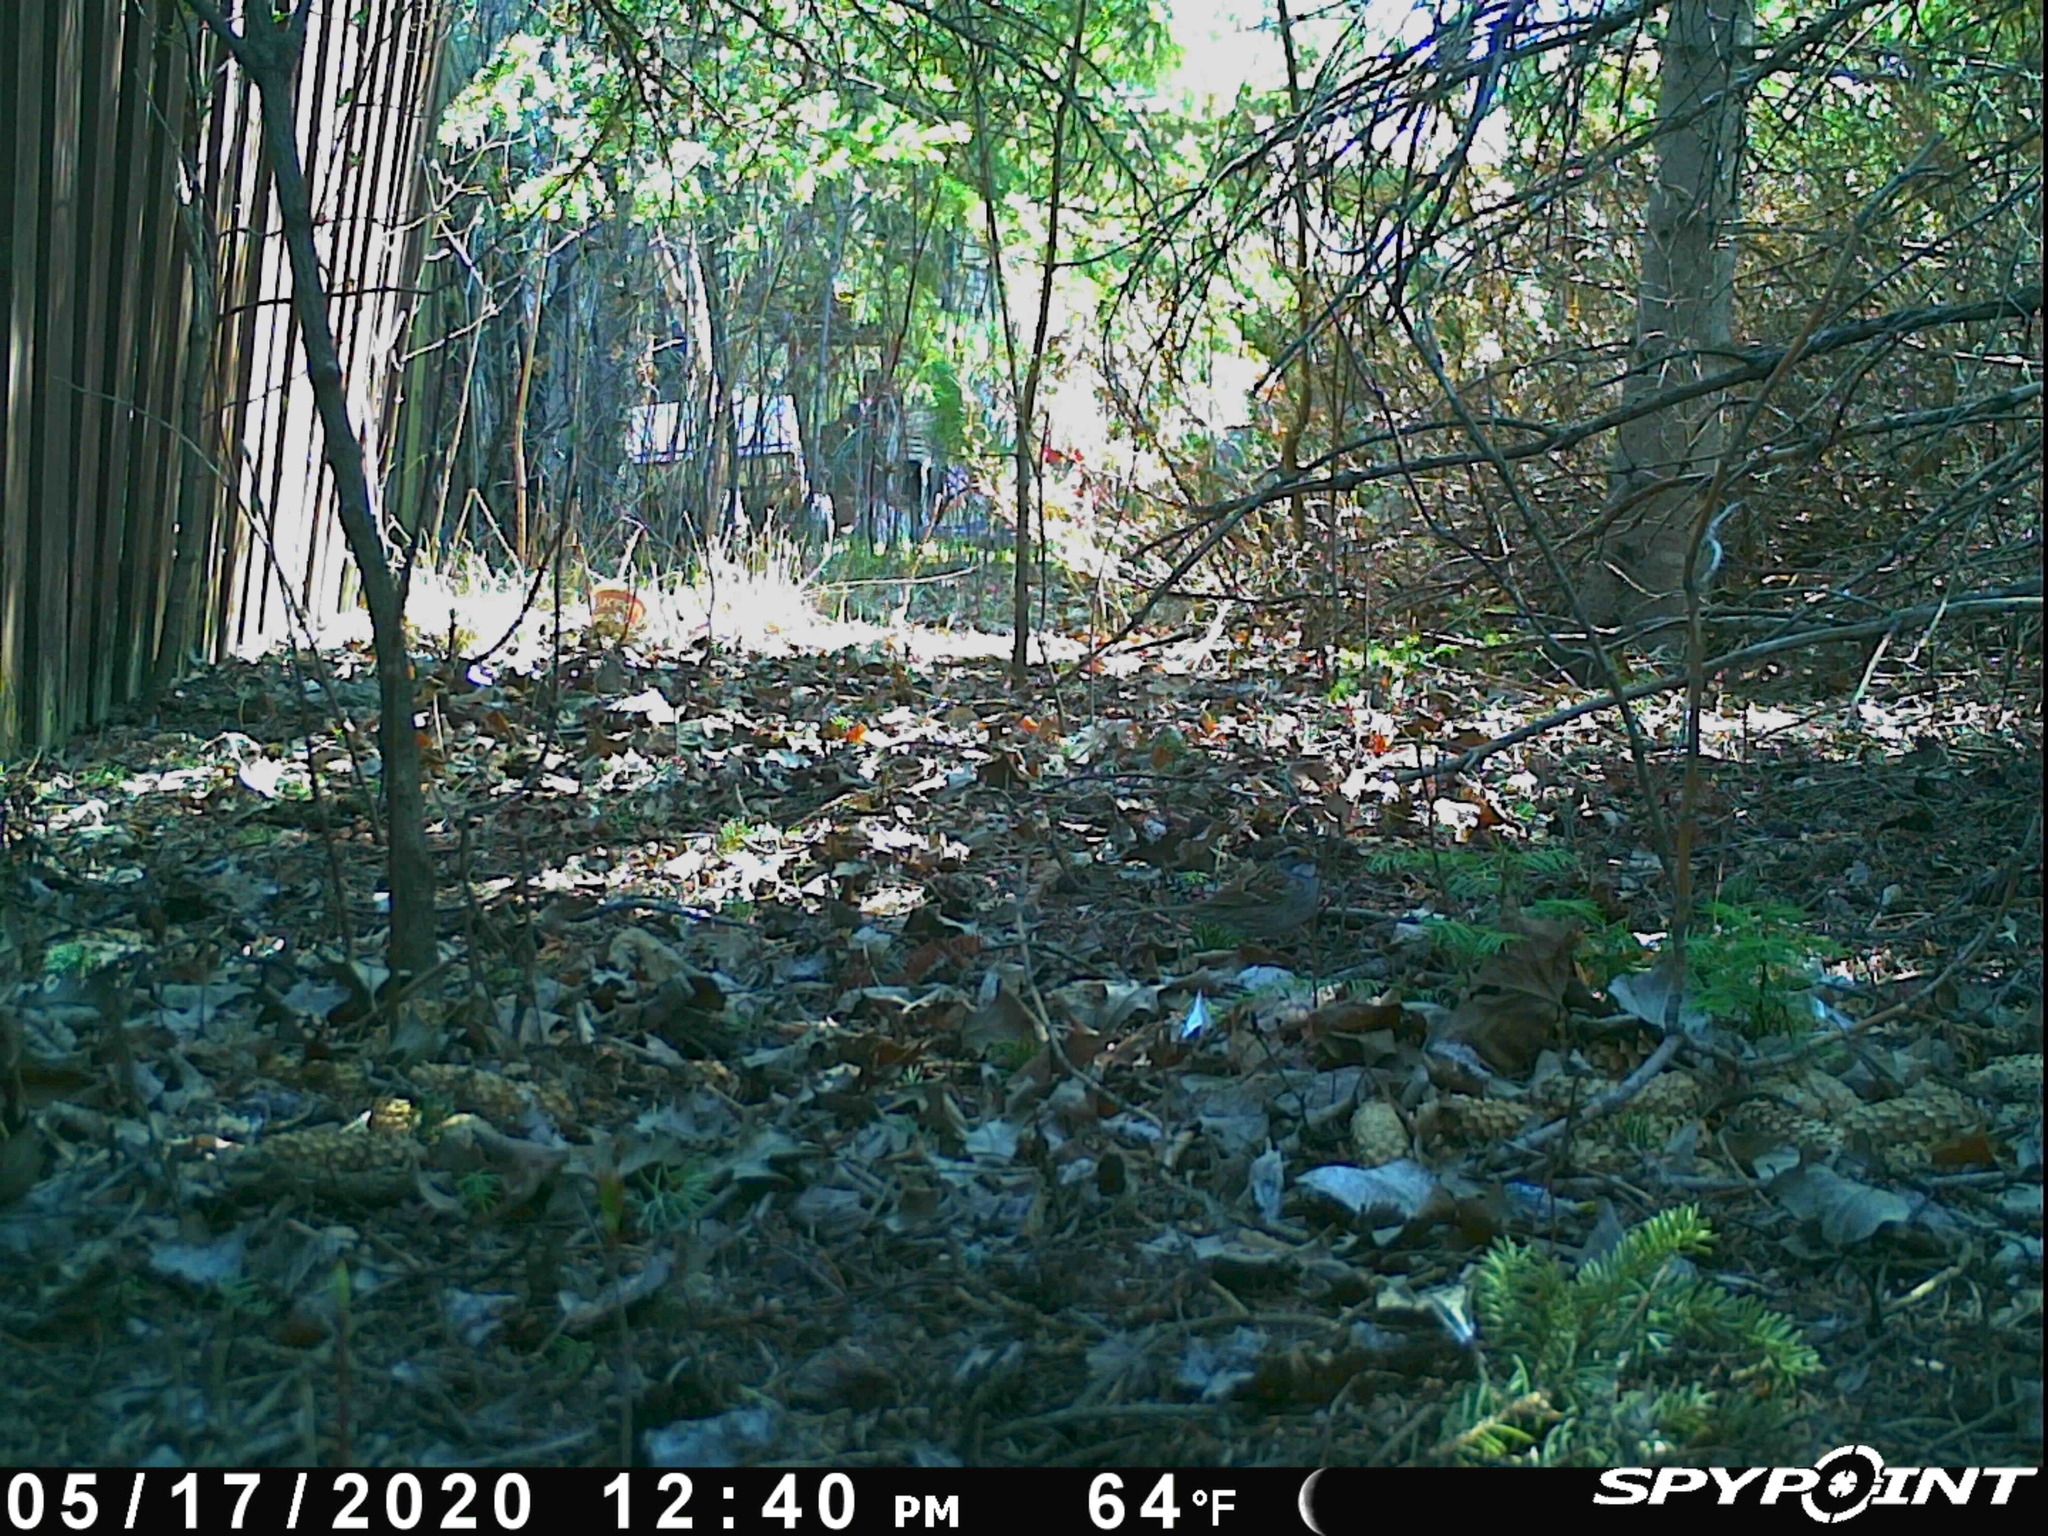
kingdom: Animalia
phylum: Chordata
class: Aves
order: Passeriformes
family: Passerellidae
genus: Zonotrichia
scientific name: Zonotrichia albicollis
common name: White-throated sparrow
